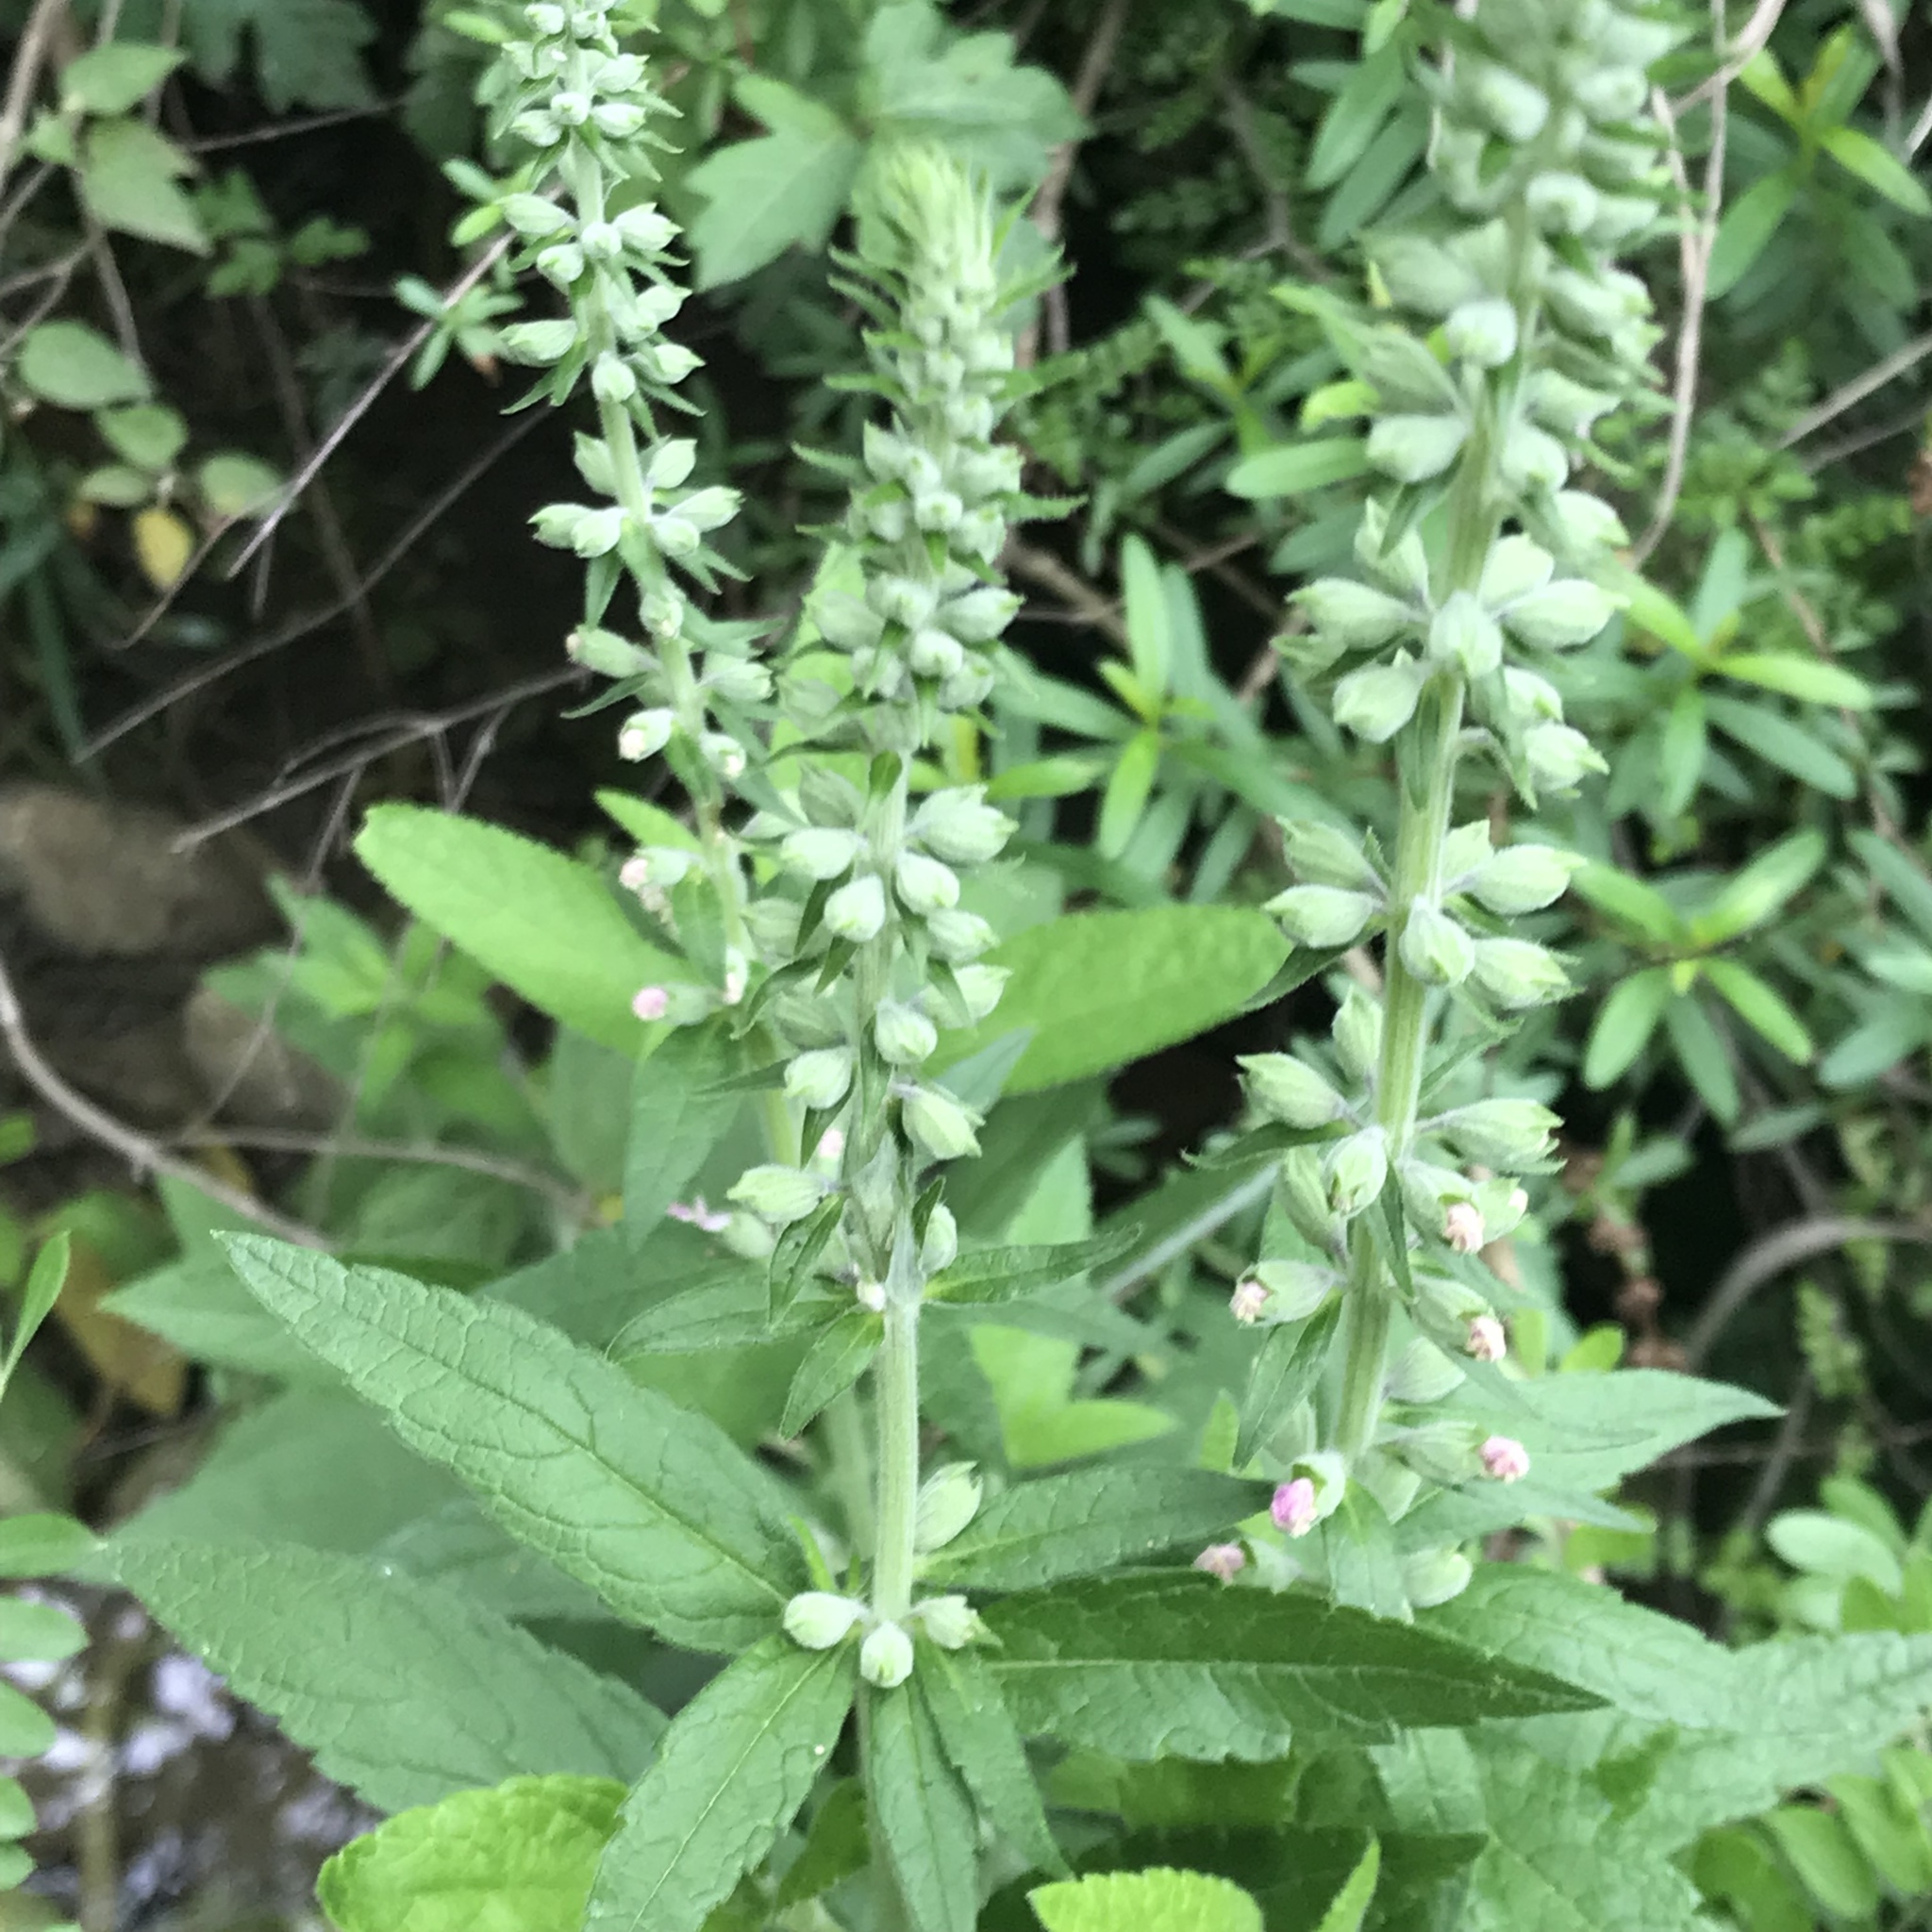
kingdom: Plantae
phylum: Tracheophyta
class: Magnoliopsida
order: Lamiales
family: Lamiaceae
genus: Teucrium
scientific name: Teucrium canadense
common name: American germander
